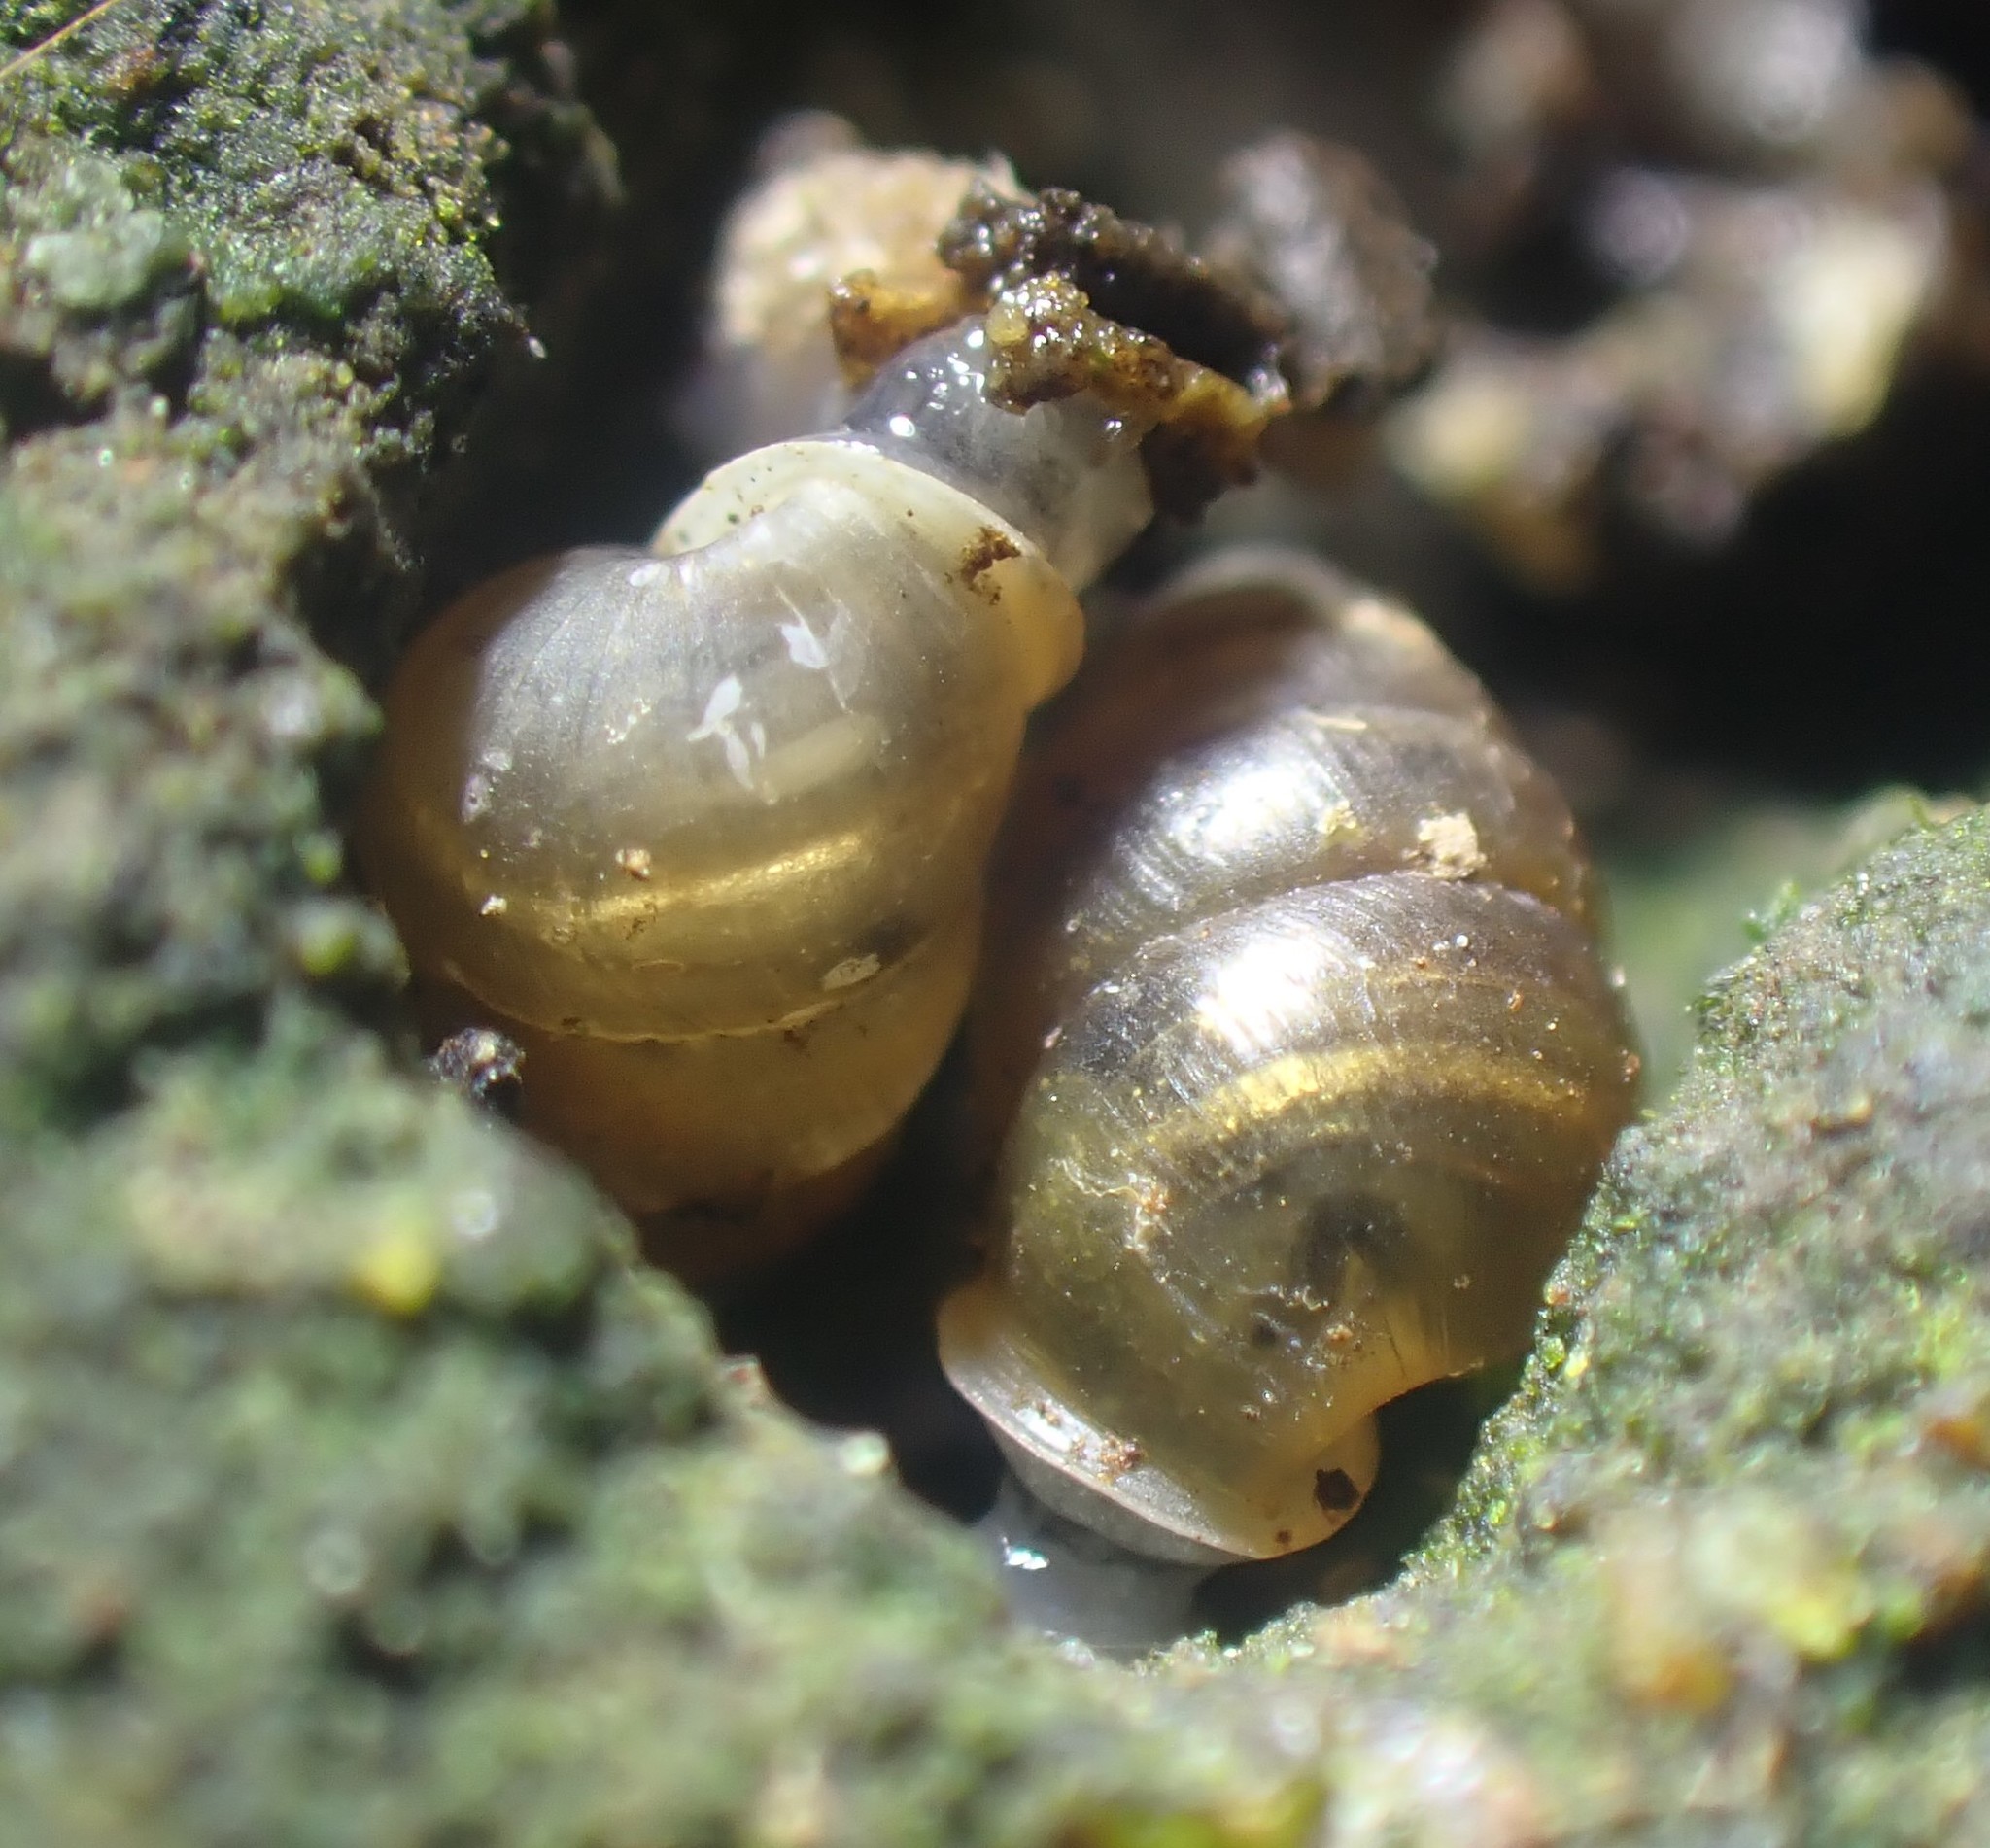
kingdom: Animalia
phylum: Mollusca
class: Gastropoda
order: Stylommatophora
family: Lauriidae
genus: Lauria
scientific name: Lauria cylindracea
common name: Common chrysalis snail
